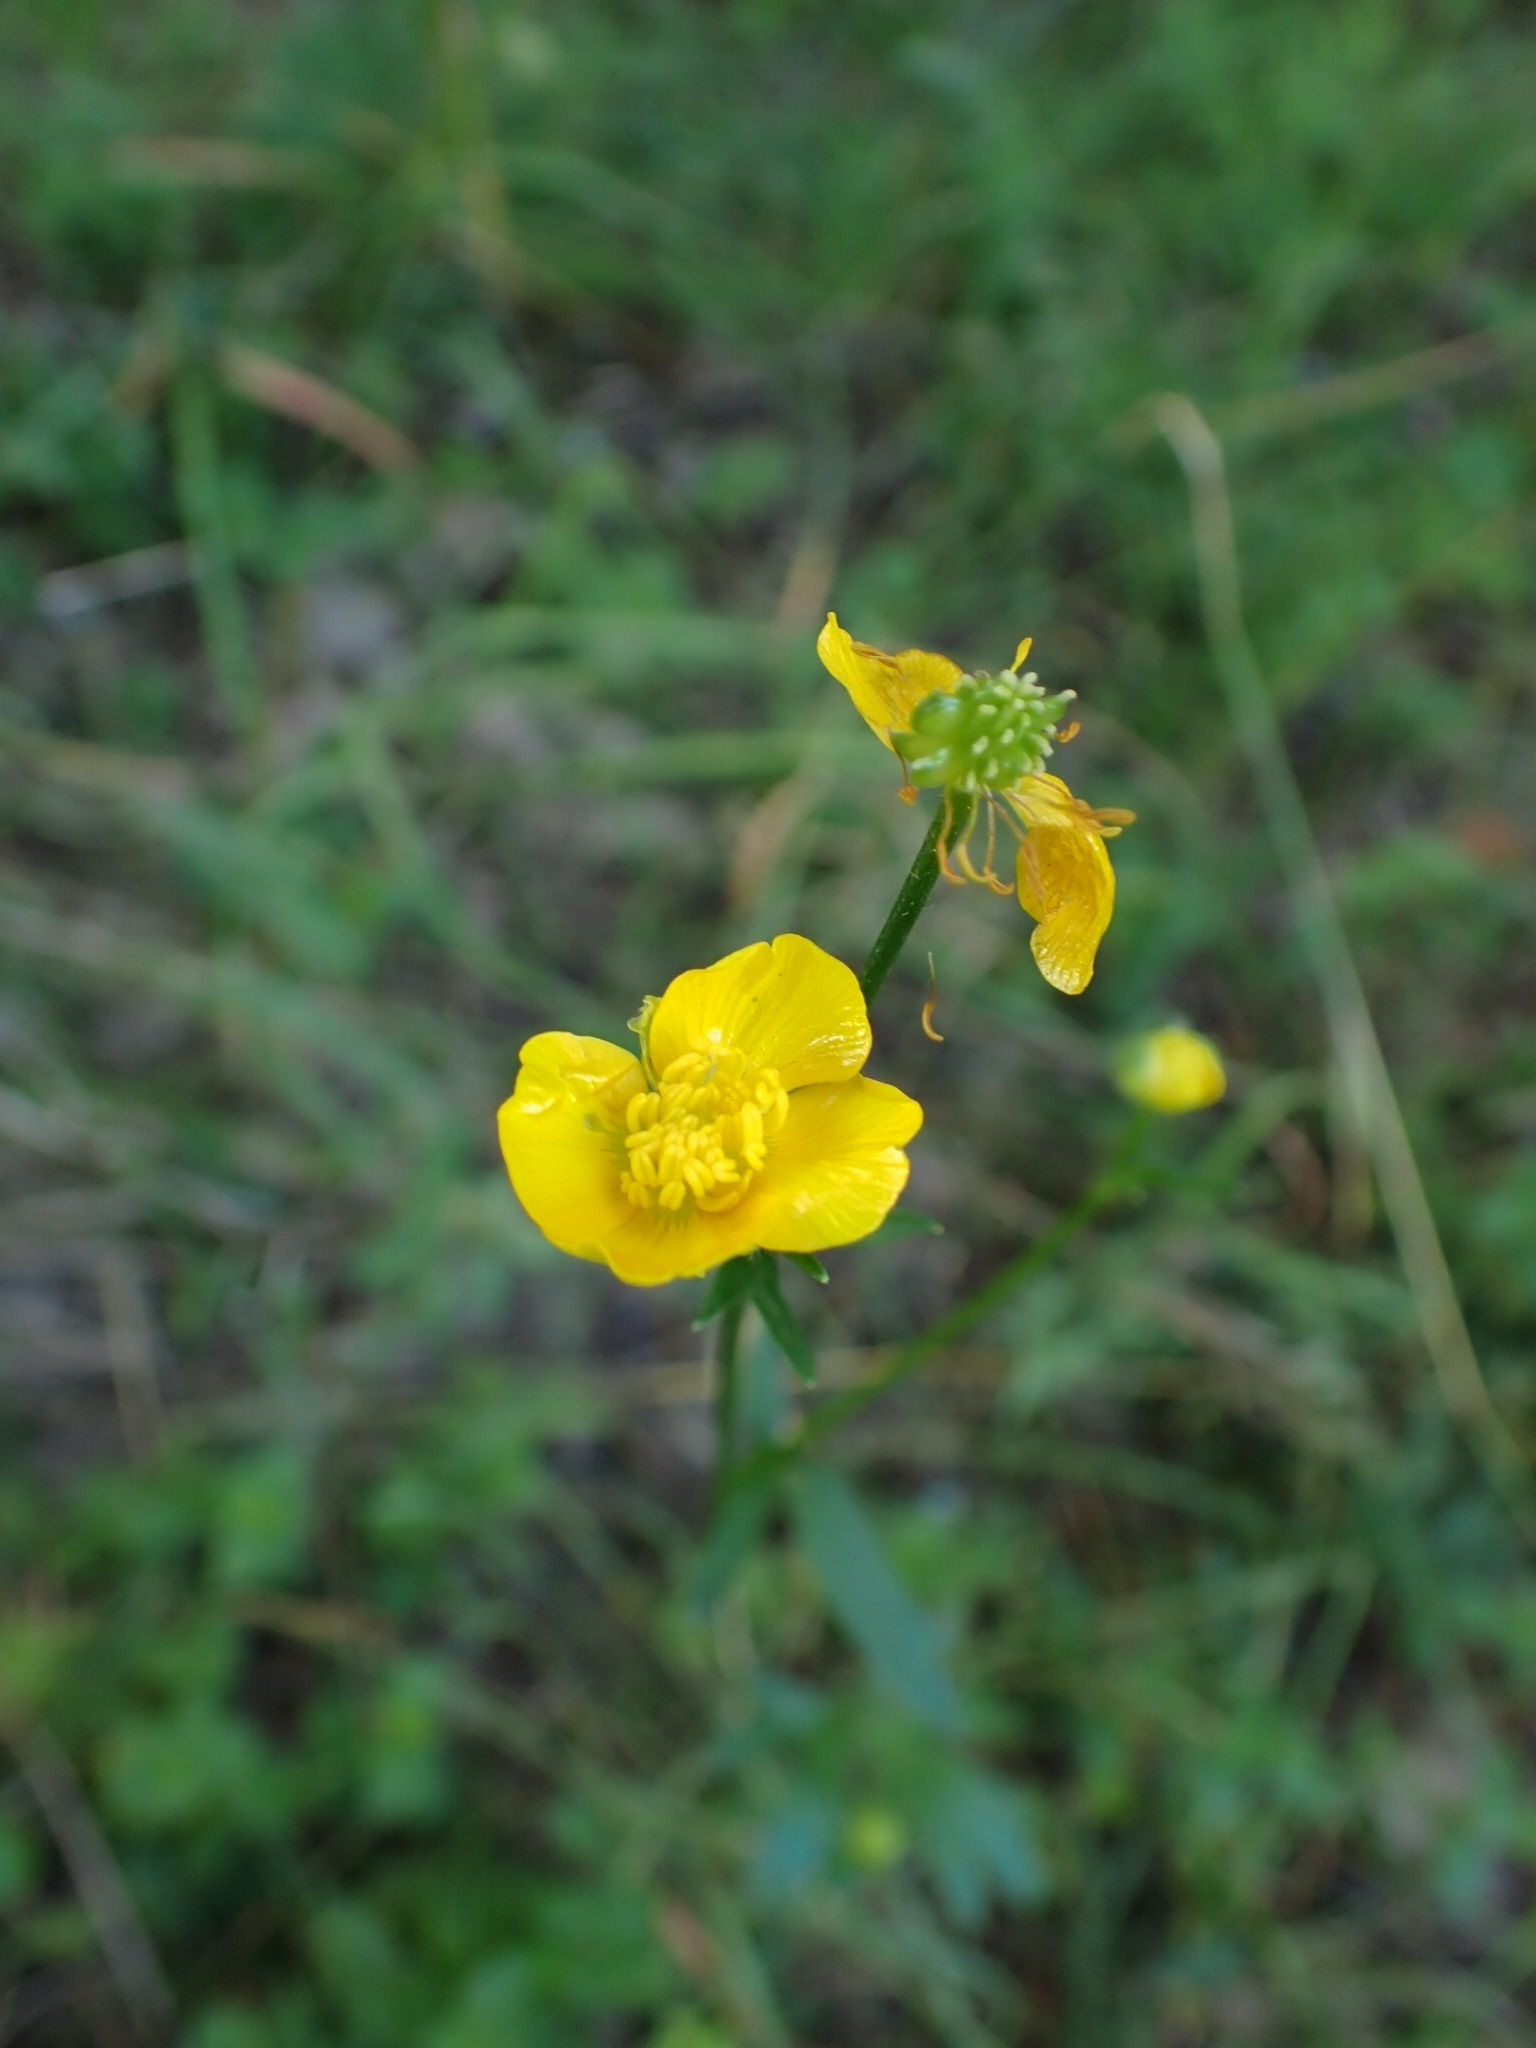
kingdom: Plantae
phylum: Tracheophyta
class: Magnoliopsida
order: Ranunculales
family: Ranunculaceae
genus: Ranunculus
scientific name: Ranunculus polyanthemos
